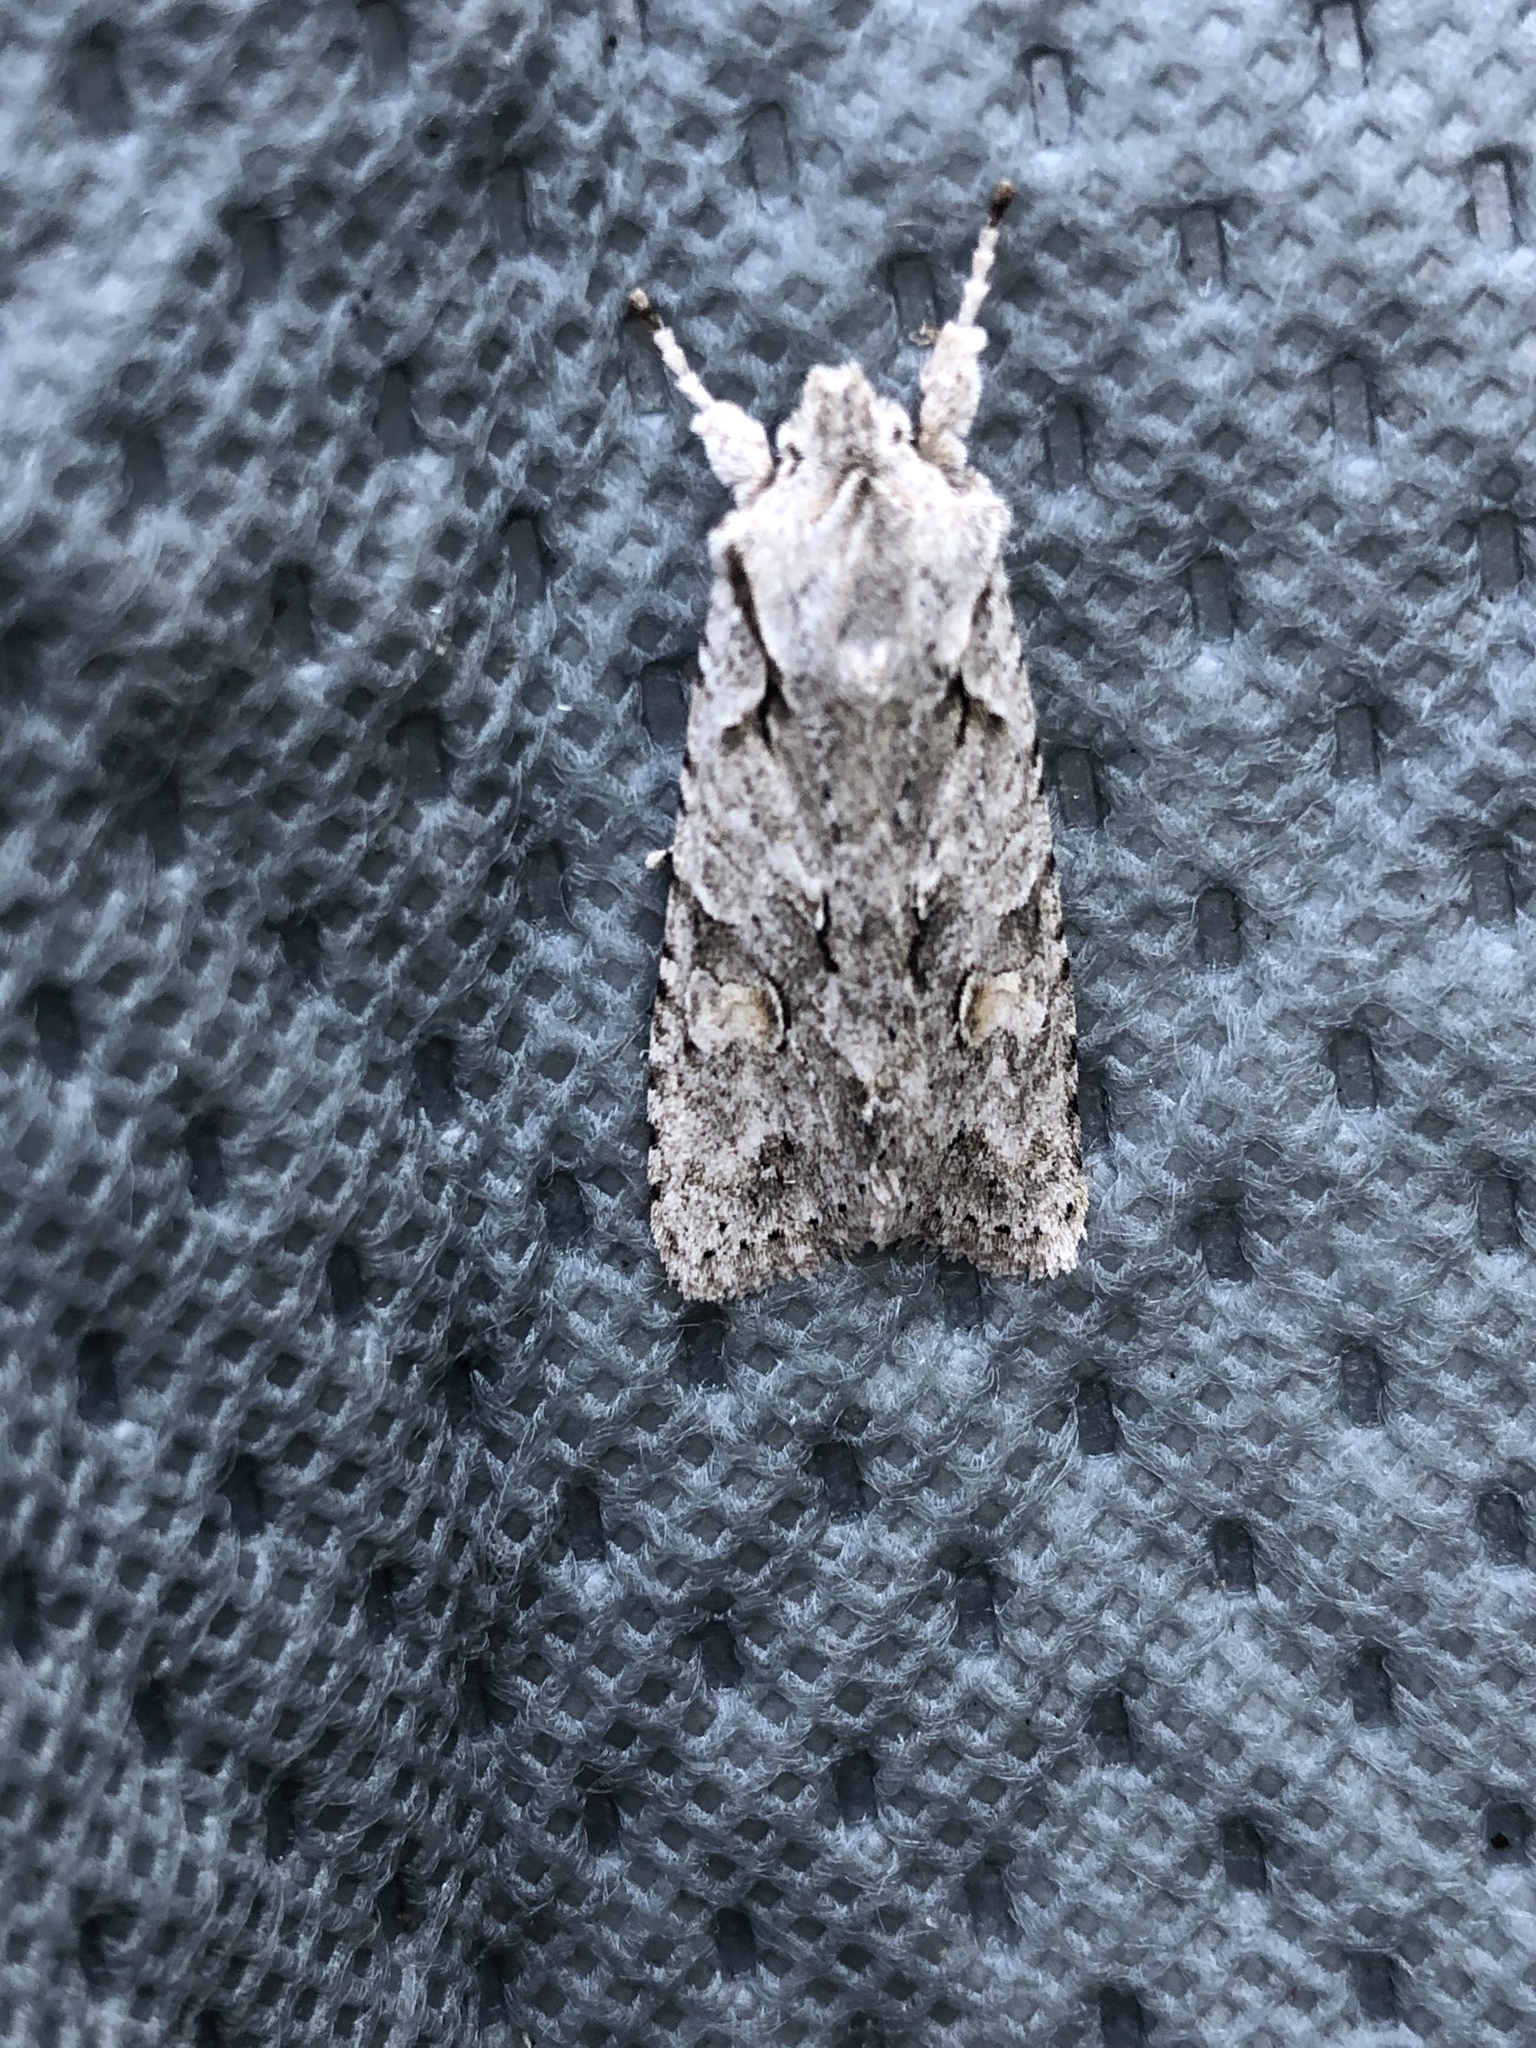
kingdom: Animalia
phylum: Arthropoda
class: Insecta
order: Lepidoptera
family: Noctuidae
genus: Lithophane
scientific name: Lithophane ornitopus
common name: Grey shoulder-knot
